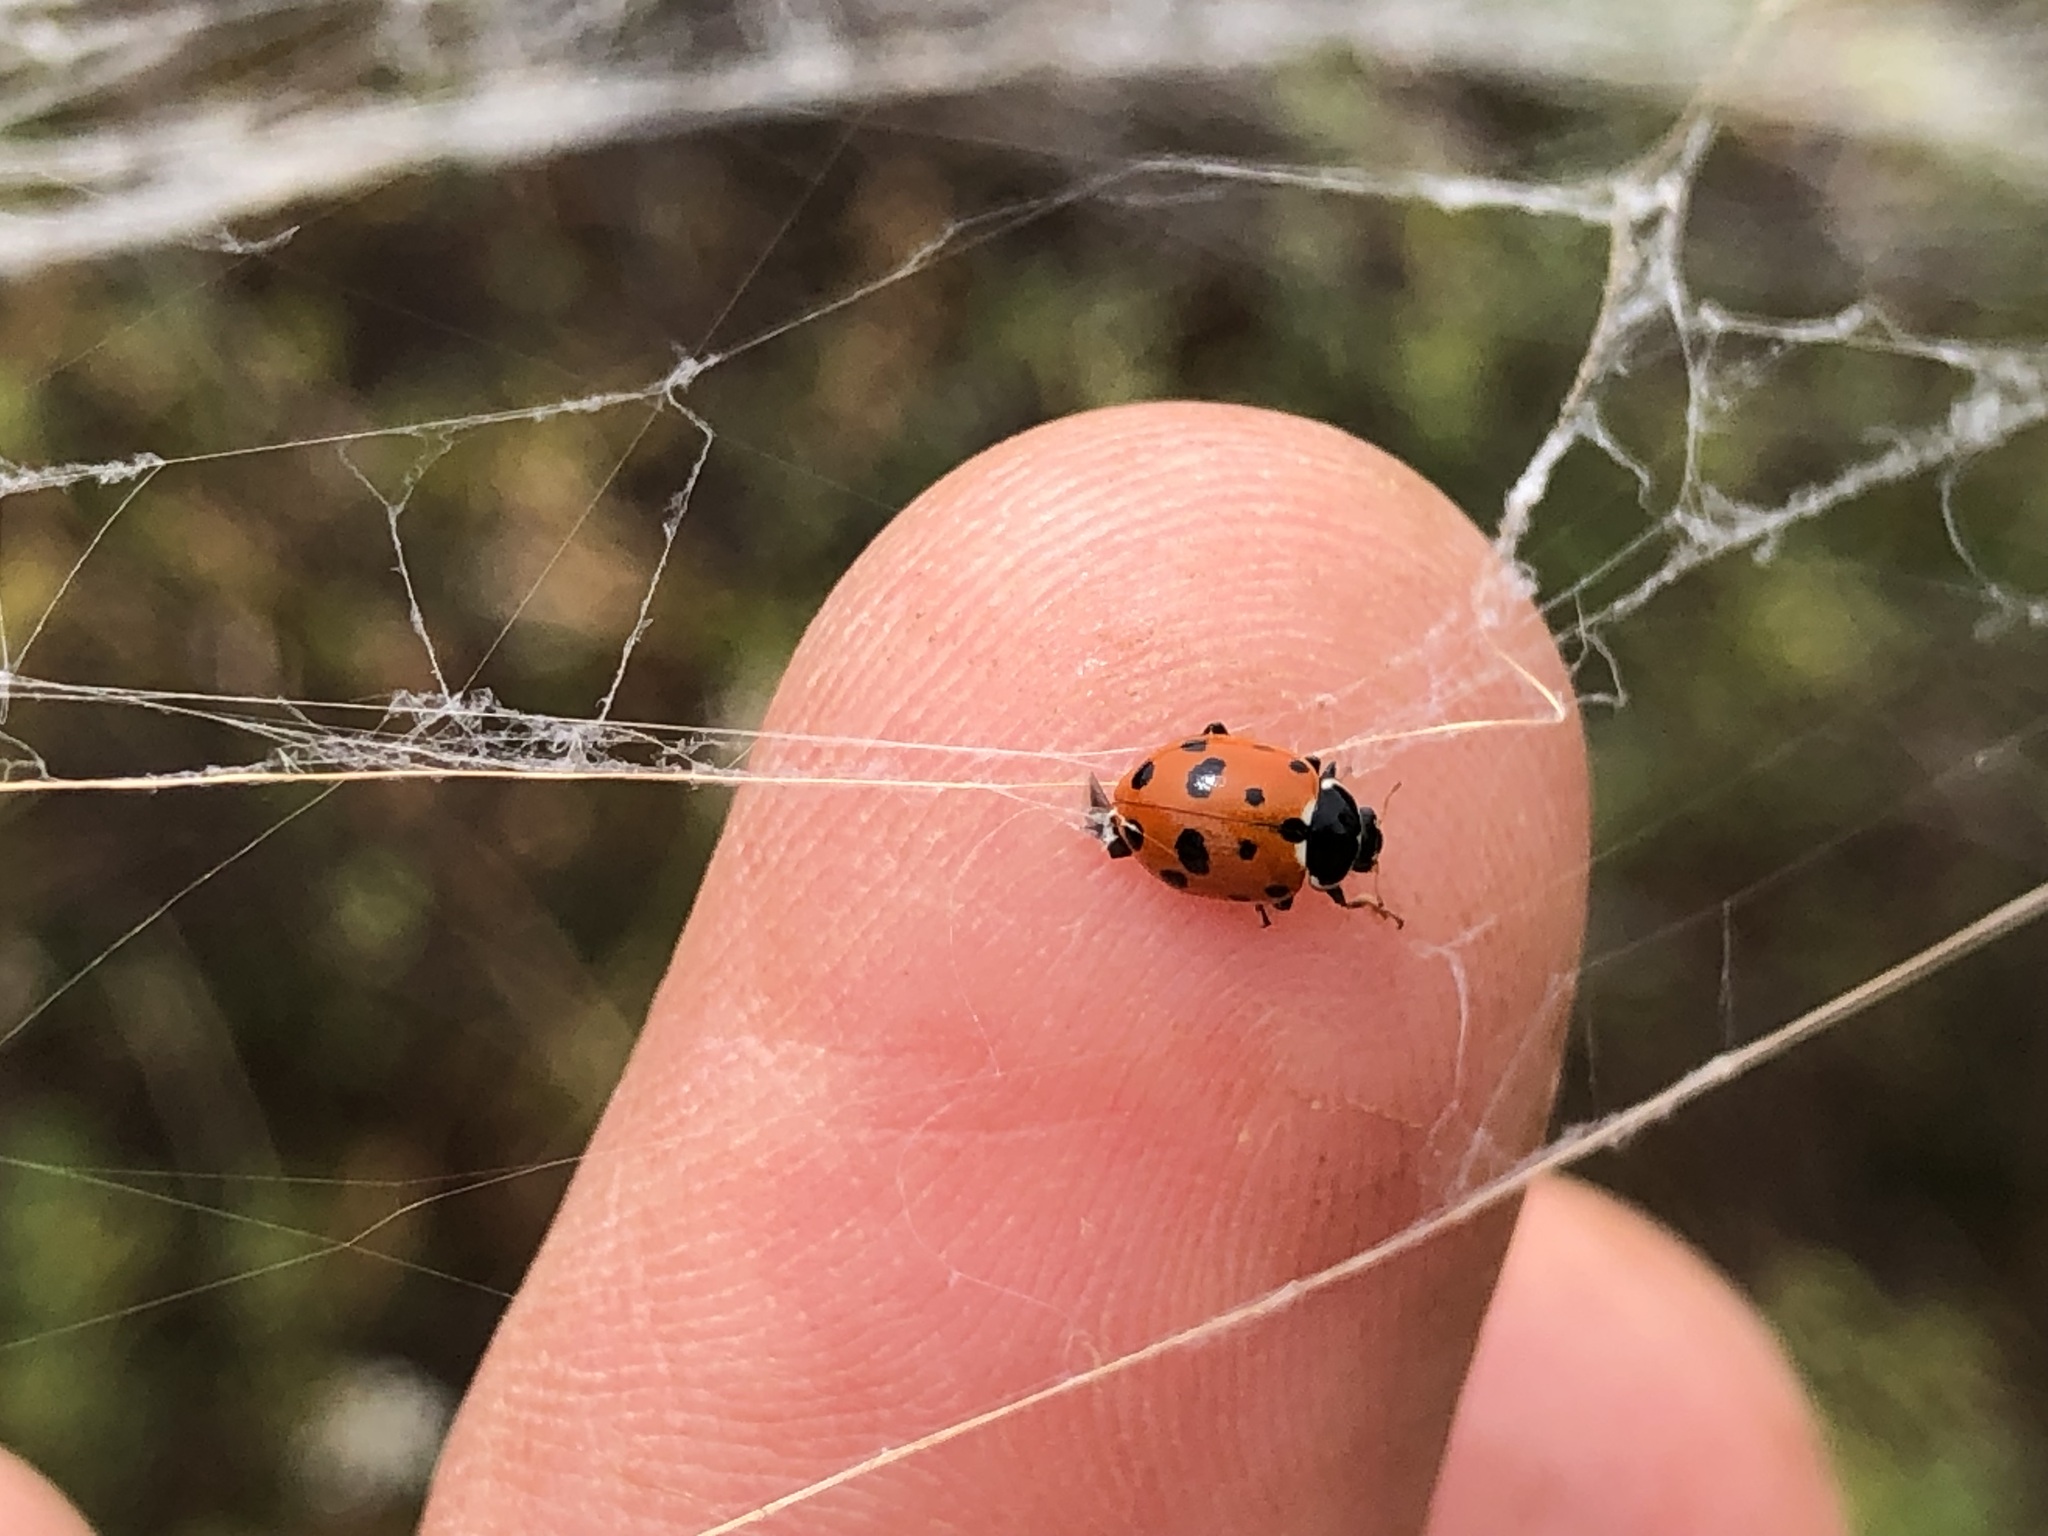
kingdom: Animalia
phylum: Arthropoda
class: Insecta
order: Coleoptera
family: Coccinellidae
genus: Hippodamia
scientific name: Hippodamia variegata
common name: Ladybird beetle
